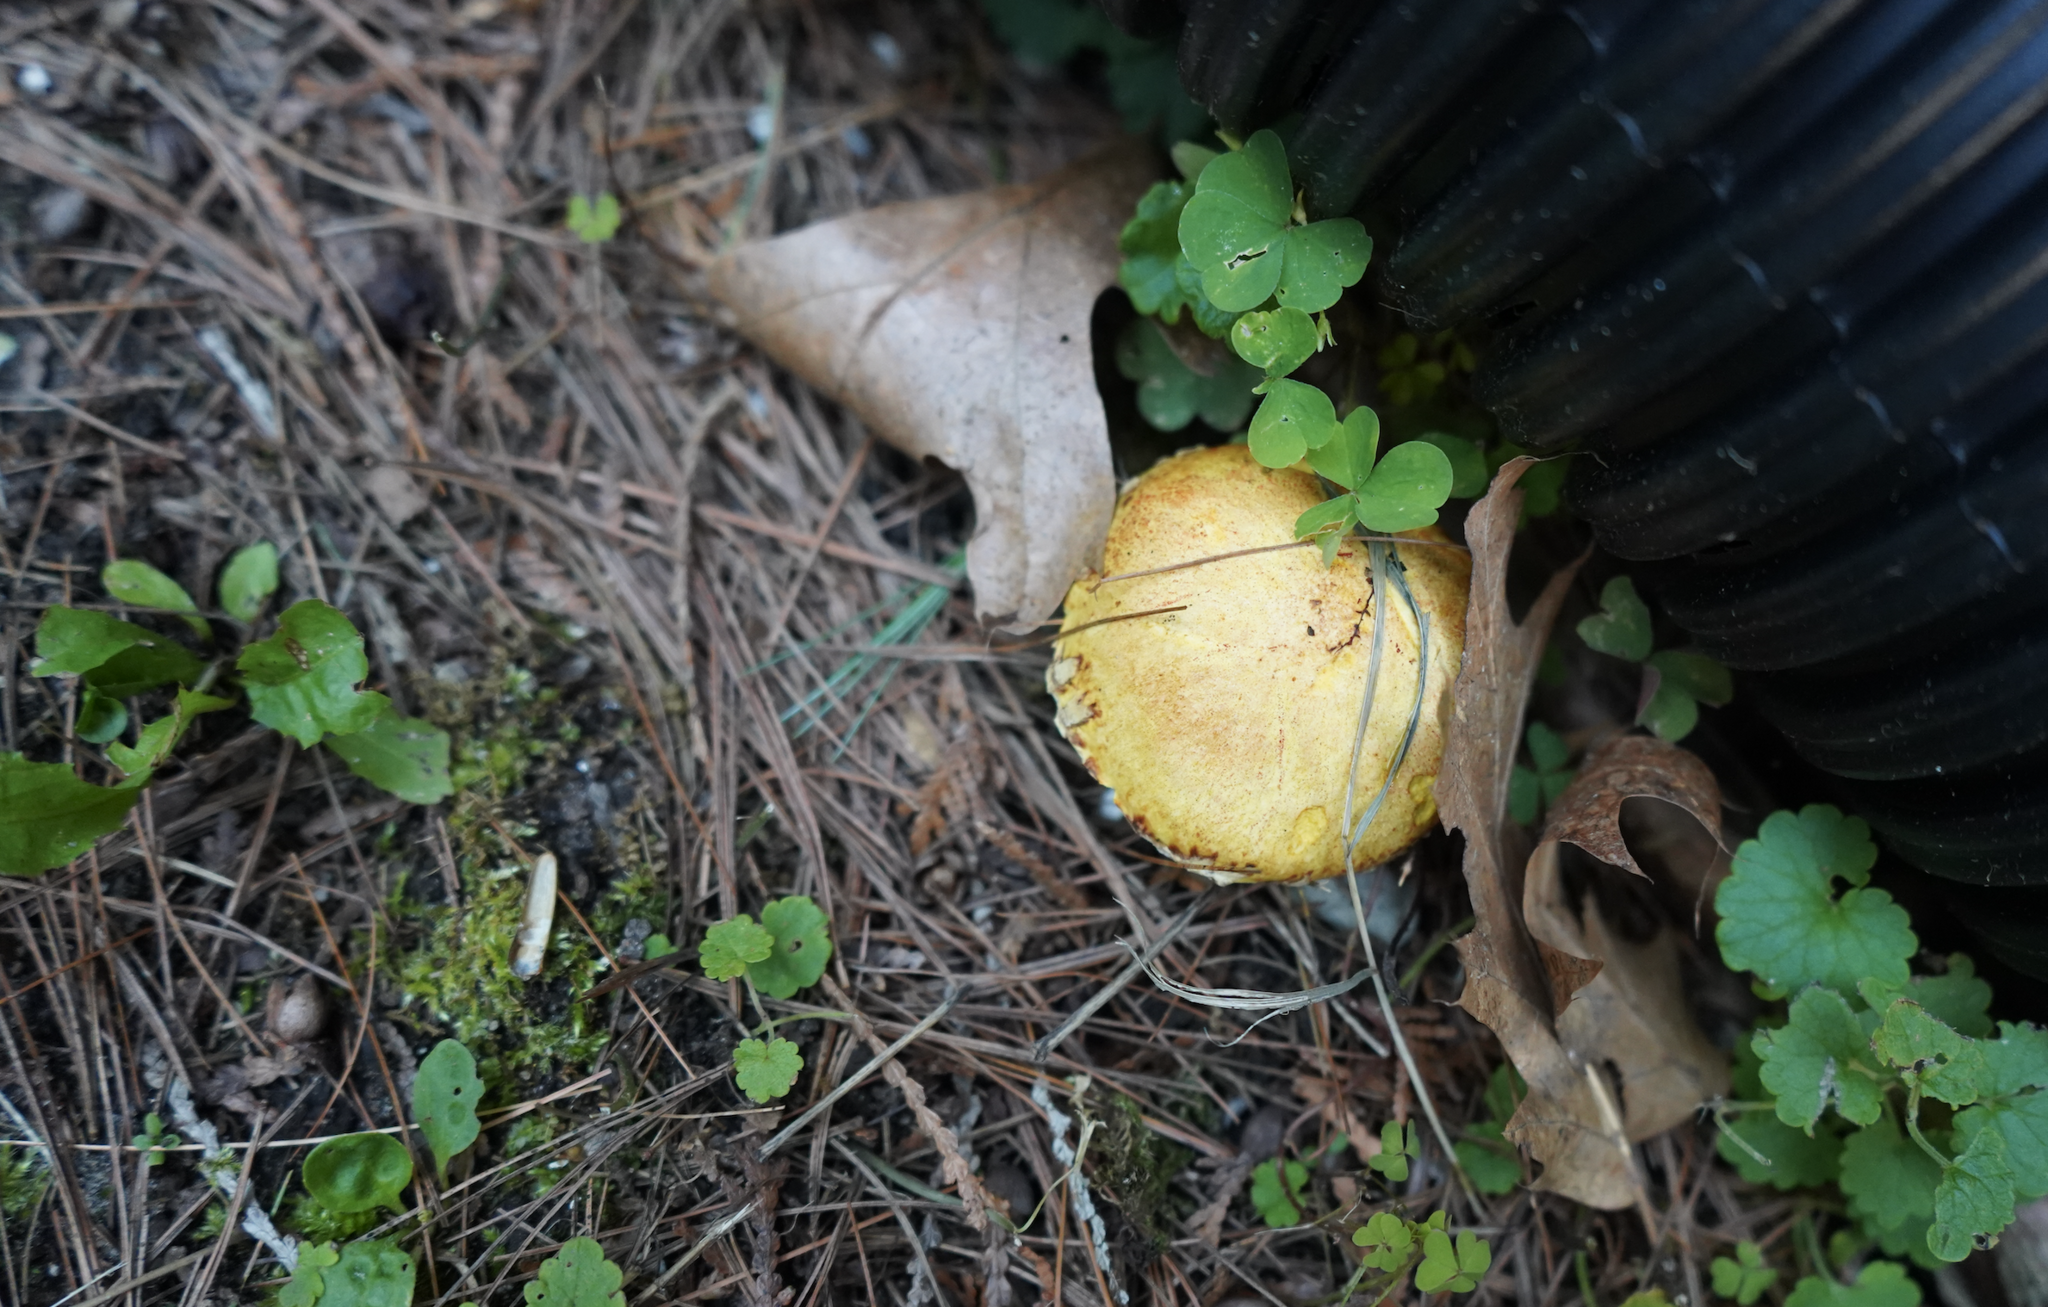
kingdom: Fungi
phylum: Basidiomycota
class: Agaricomycetes
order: Boletales
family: Suillaceae
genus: Suillus
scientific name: Suillus americanus
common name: Chicken fat mushroom
